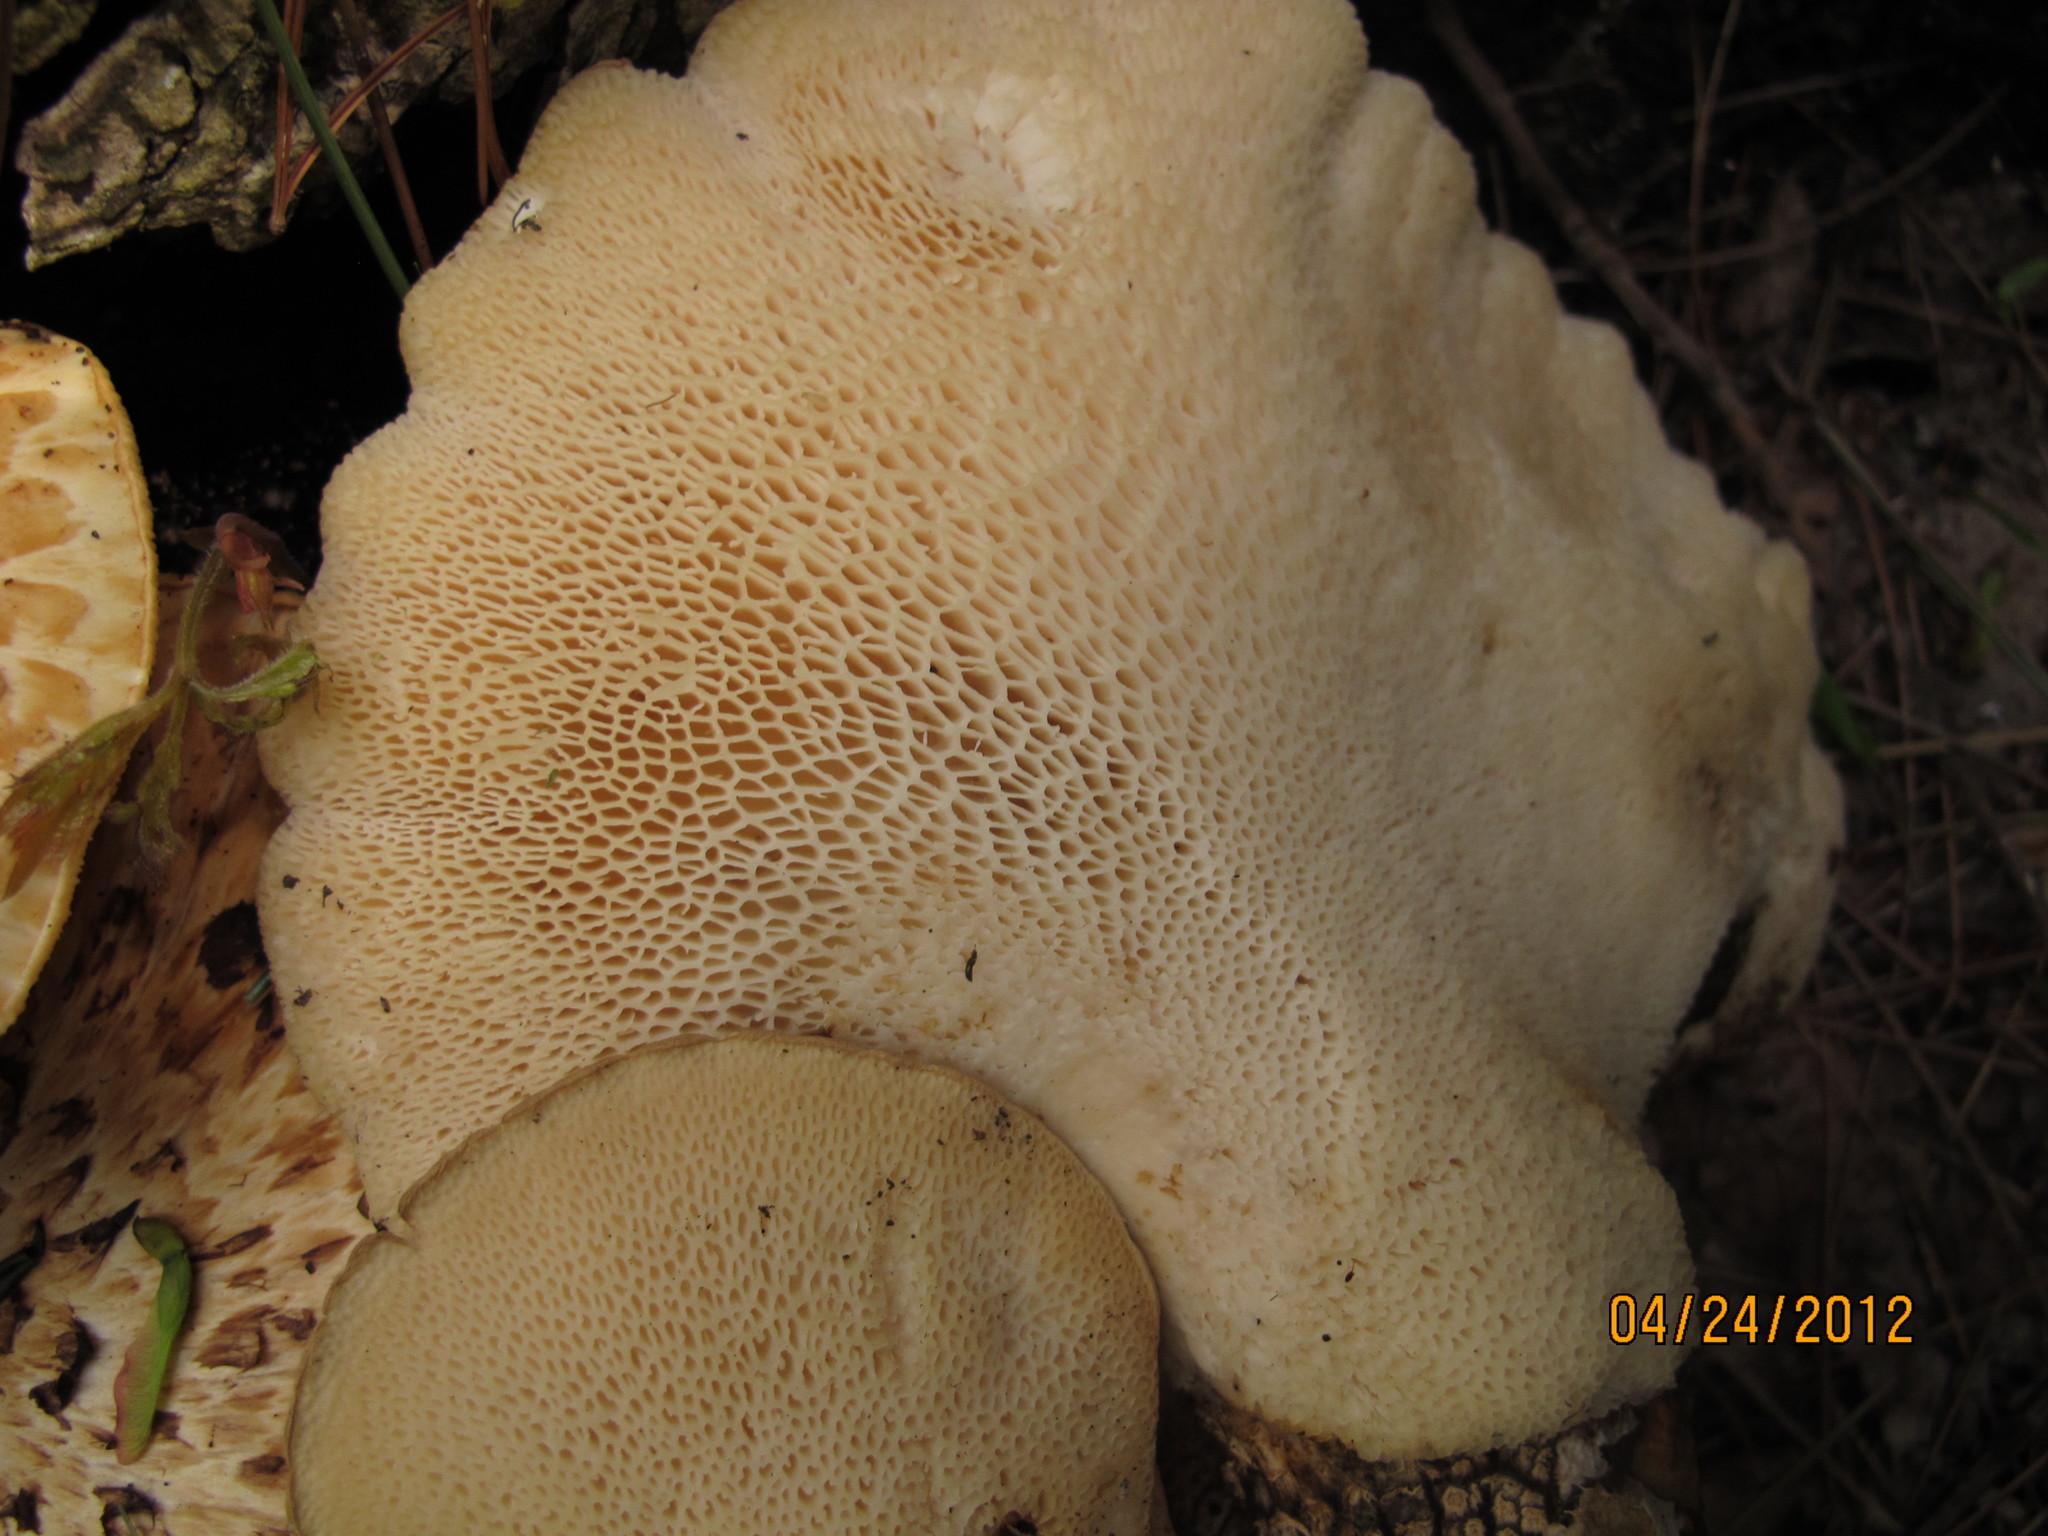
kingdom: Fungi
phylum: Basidiomycota
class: Agaricomycetes
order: Polyporales
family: Polyporaceae
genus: Cerioporus
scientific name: Cerioporus squamosus
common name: Dryad's saddle
